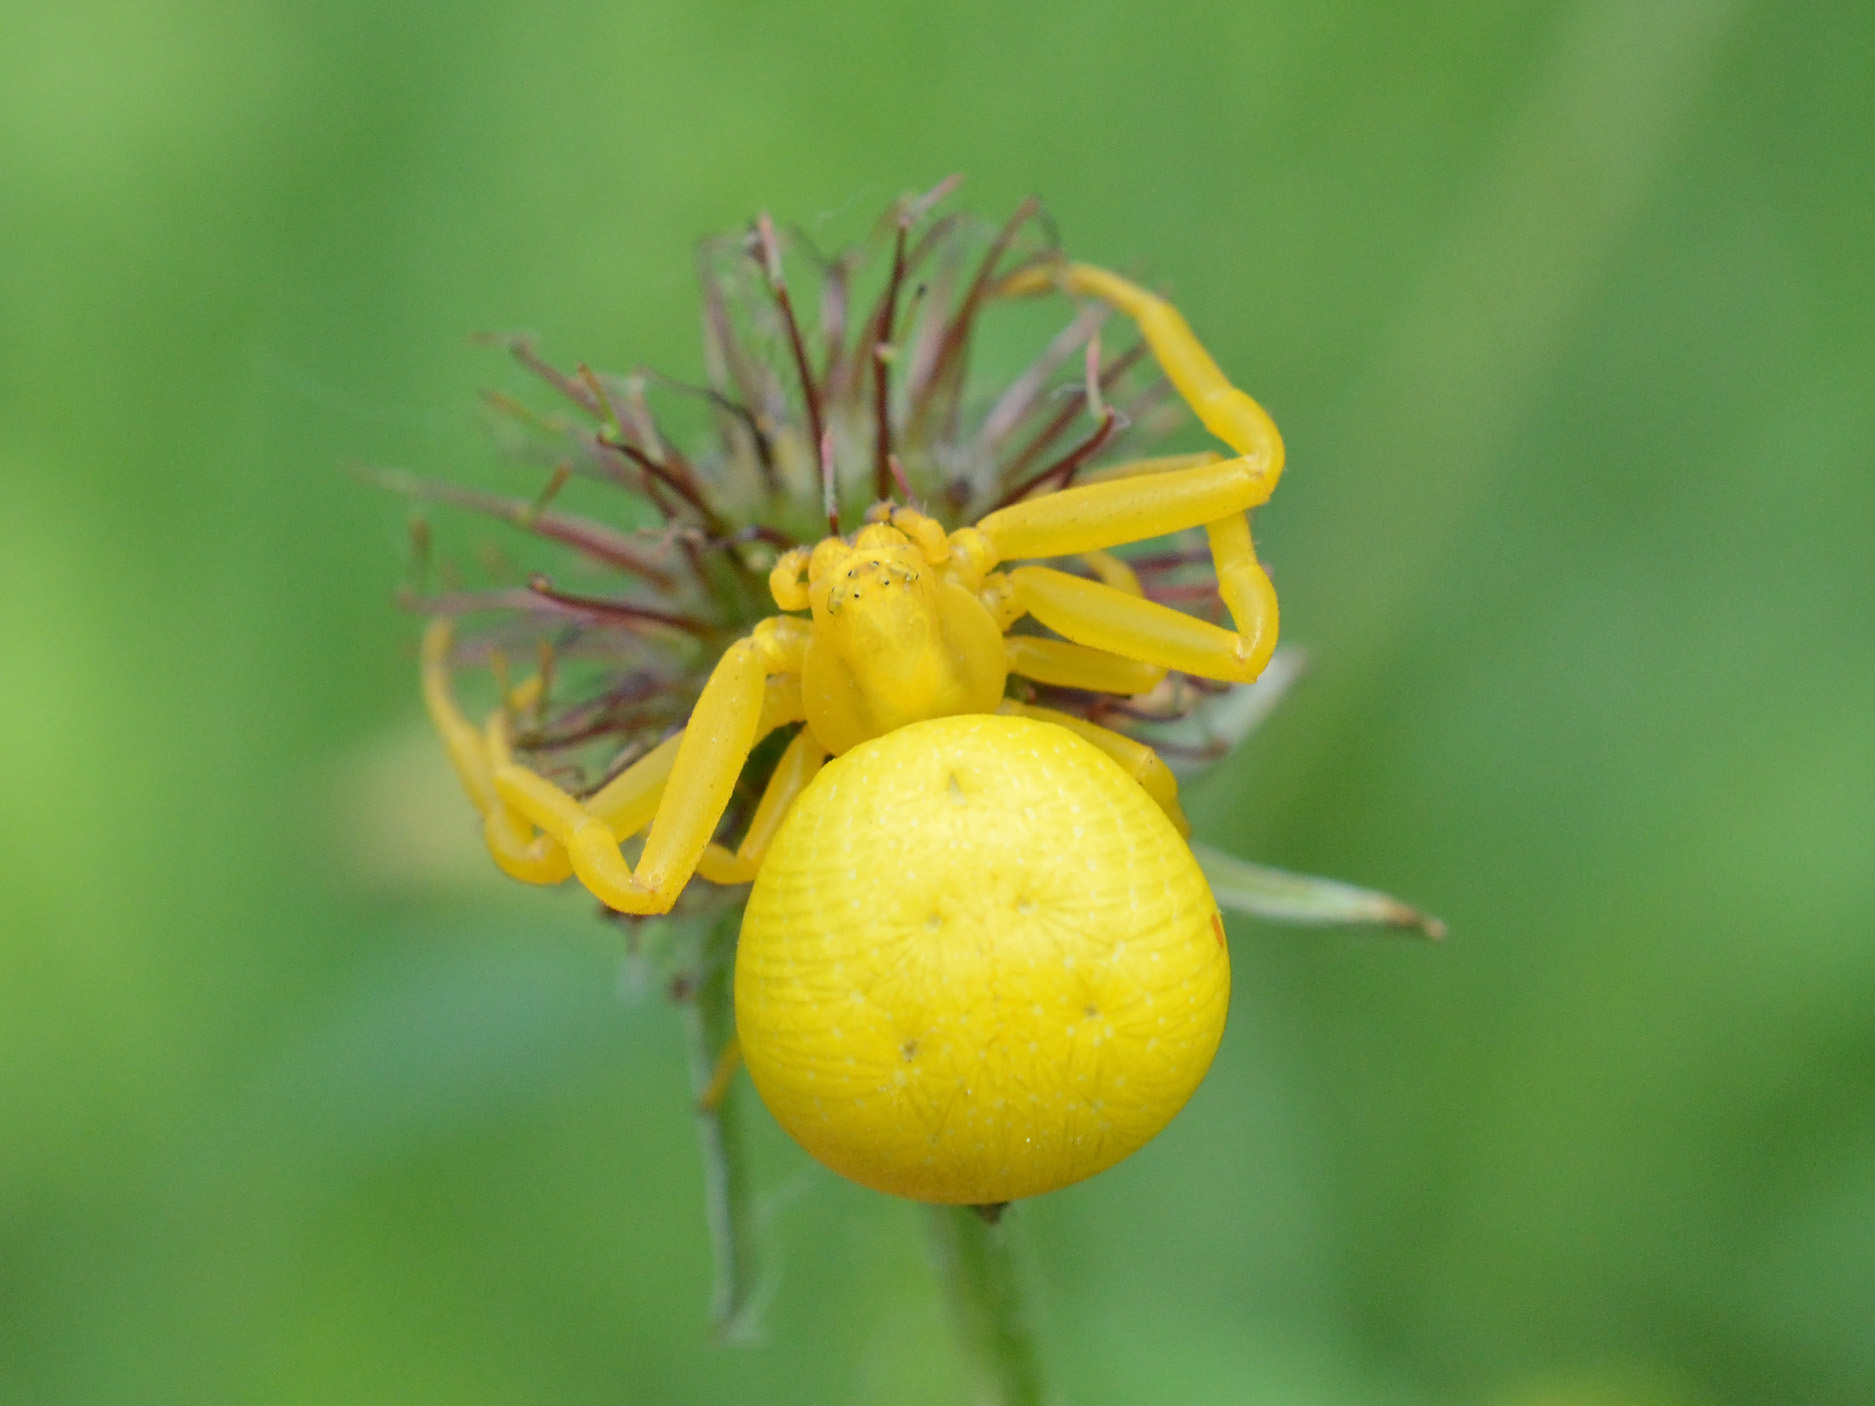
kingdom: Animalia
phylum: Arthropoda
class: Arachnida
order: Araneae
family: Thomisidae
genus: Misumena
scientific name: Misumena vatia
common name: Goldenrod crab spider
